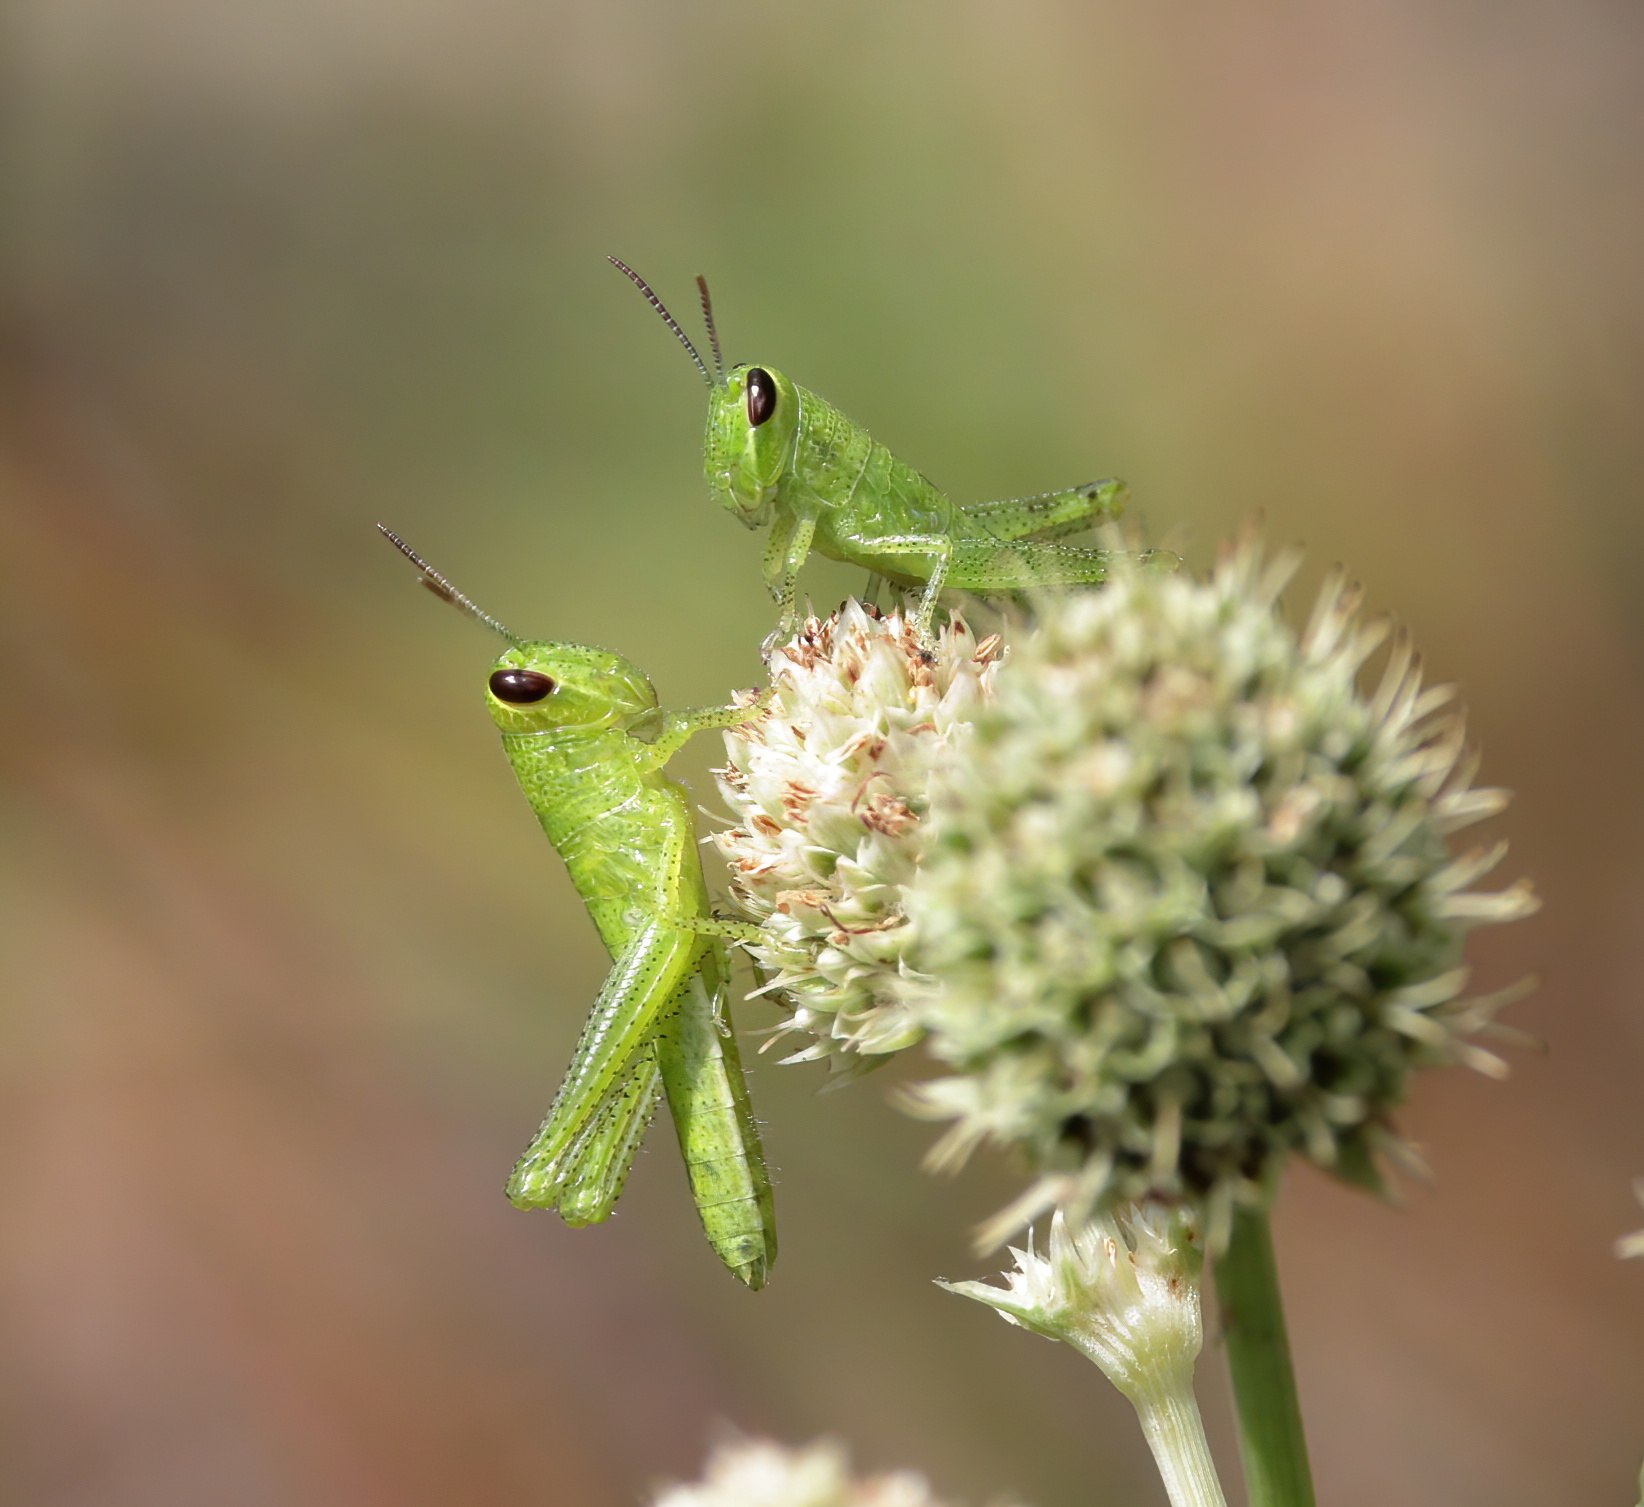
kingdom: Animalia
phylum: Arthropoda
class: Insecta
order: Orthoptera
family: Acrididae
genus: Schistocerca
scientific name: Schistocerca americana
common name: American bird locust
